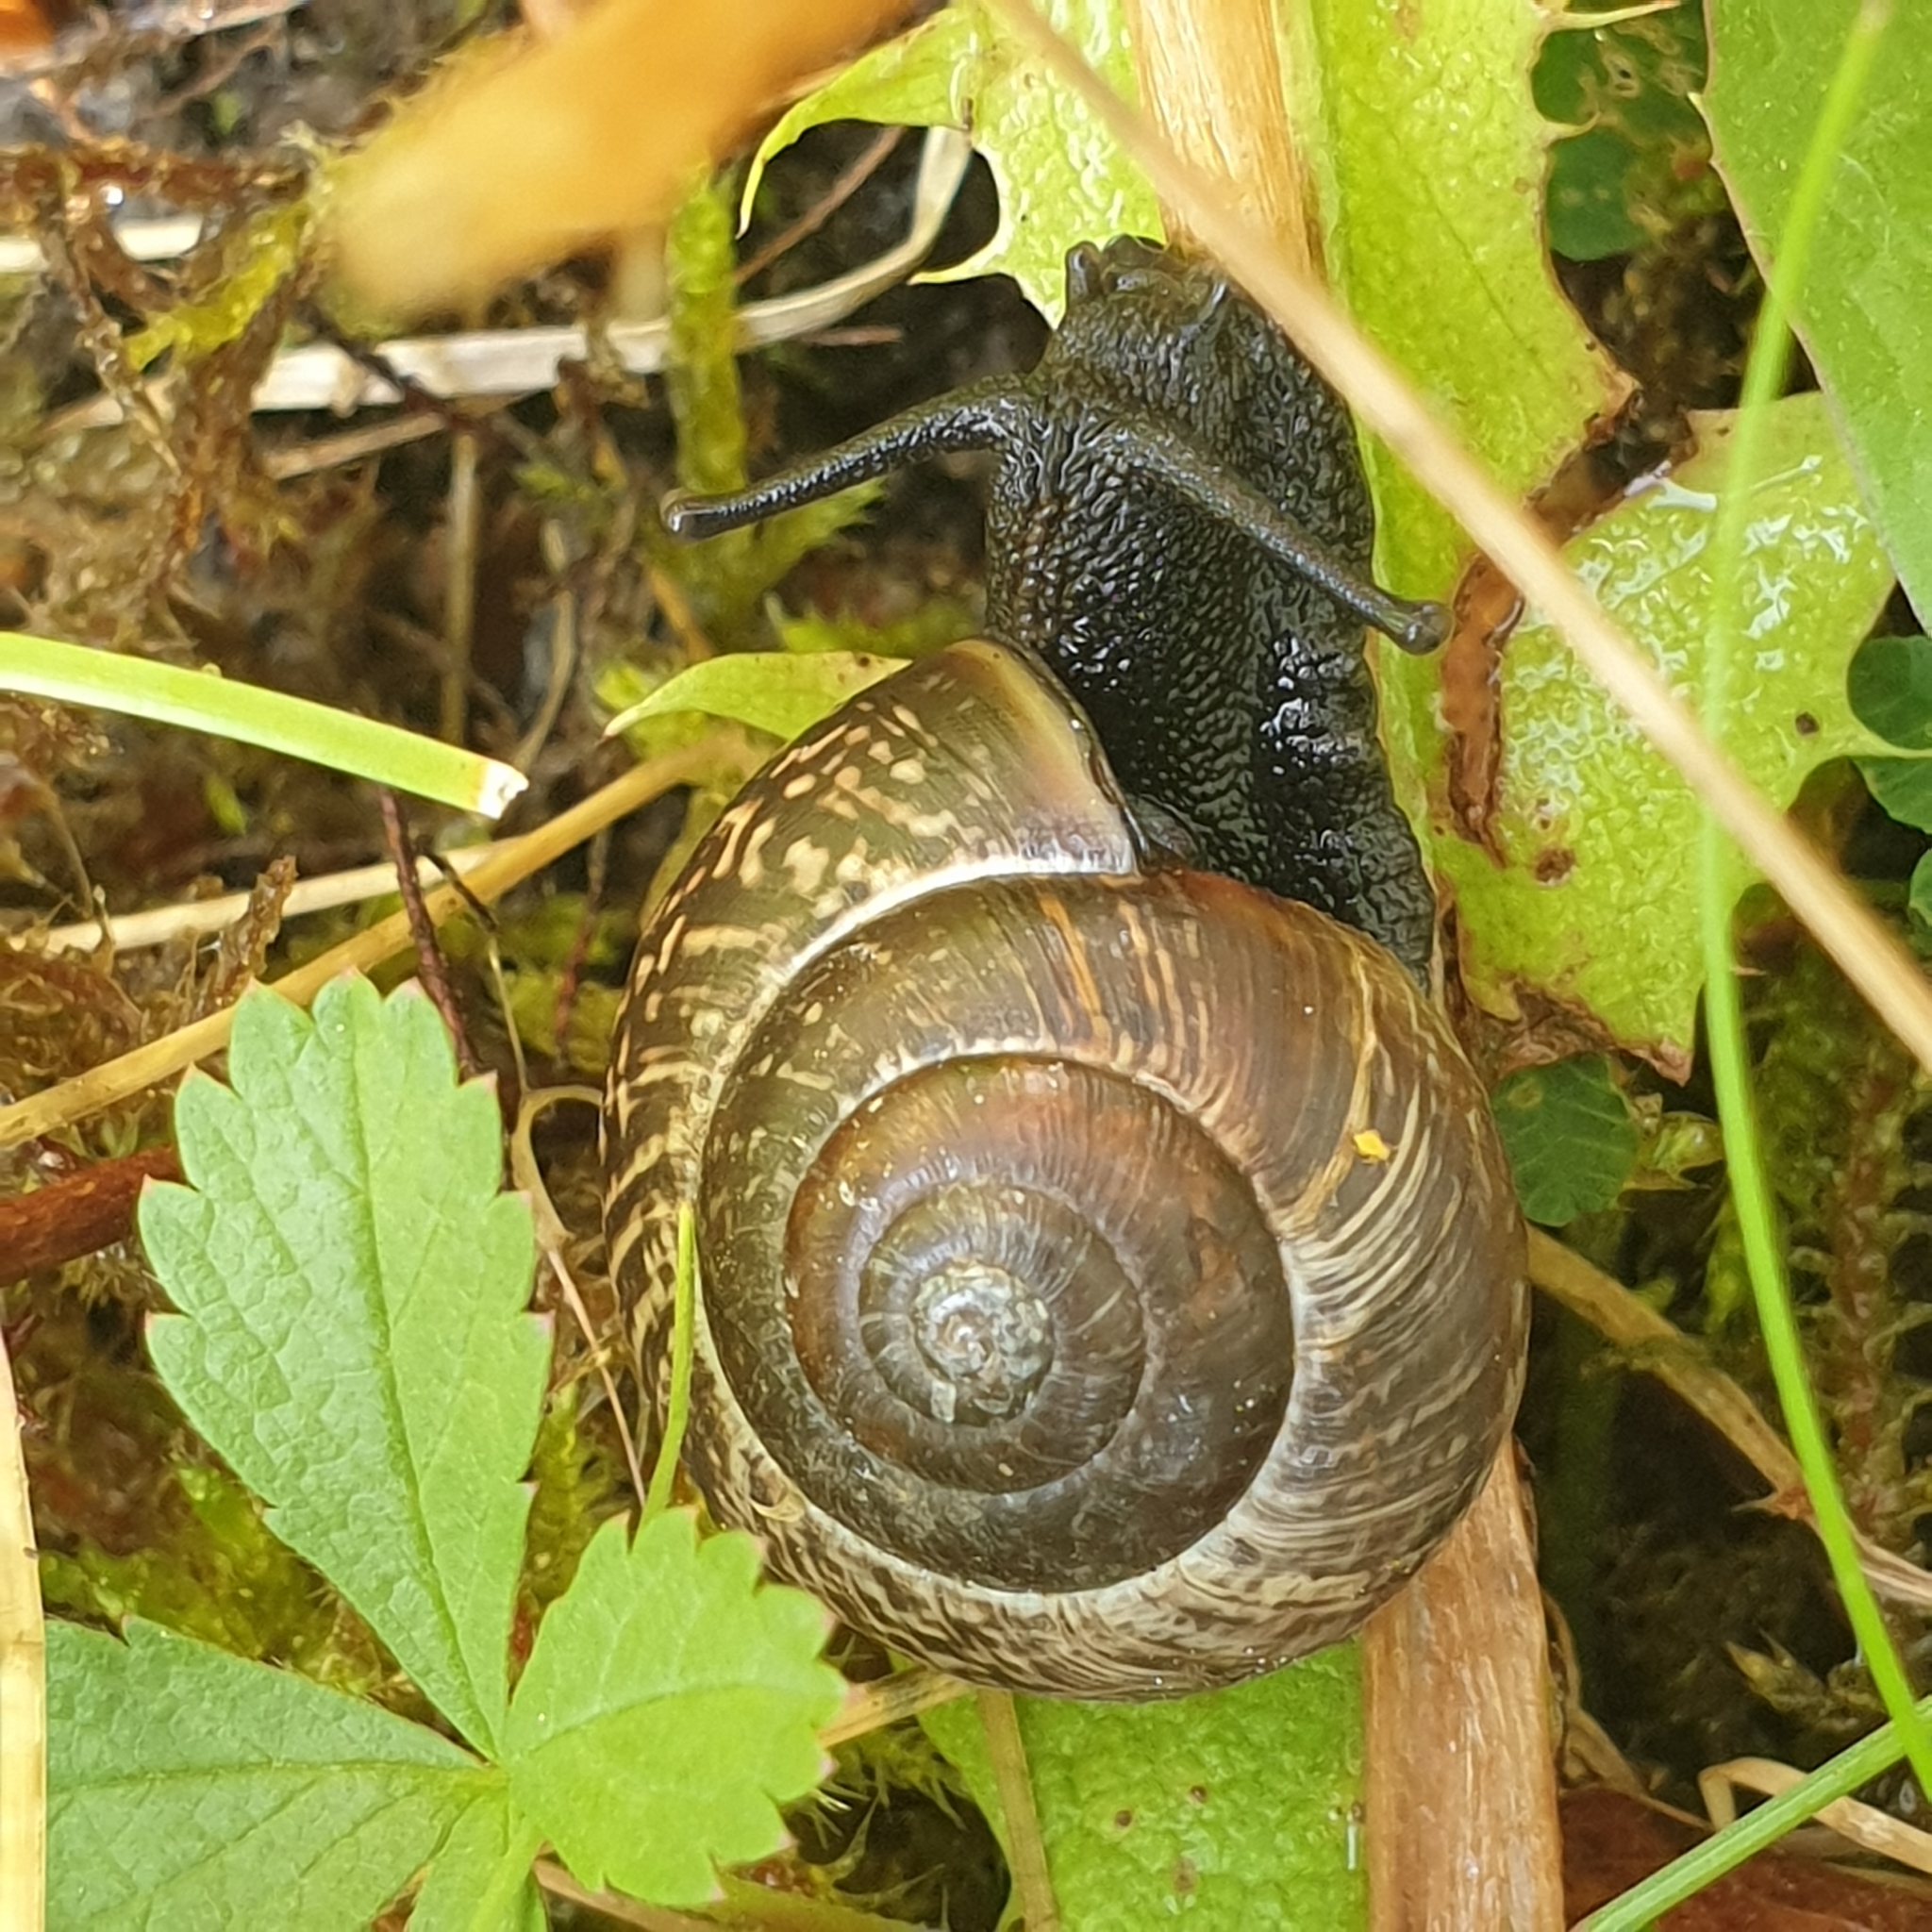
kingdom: Animalia
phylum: Mollusca
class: Gastropoda
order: Stylommatophora
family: Helicidae
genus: Arianta
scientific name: Arianta arbustorum
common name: Copse snail
